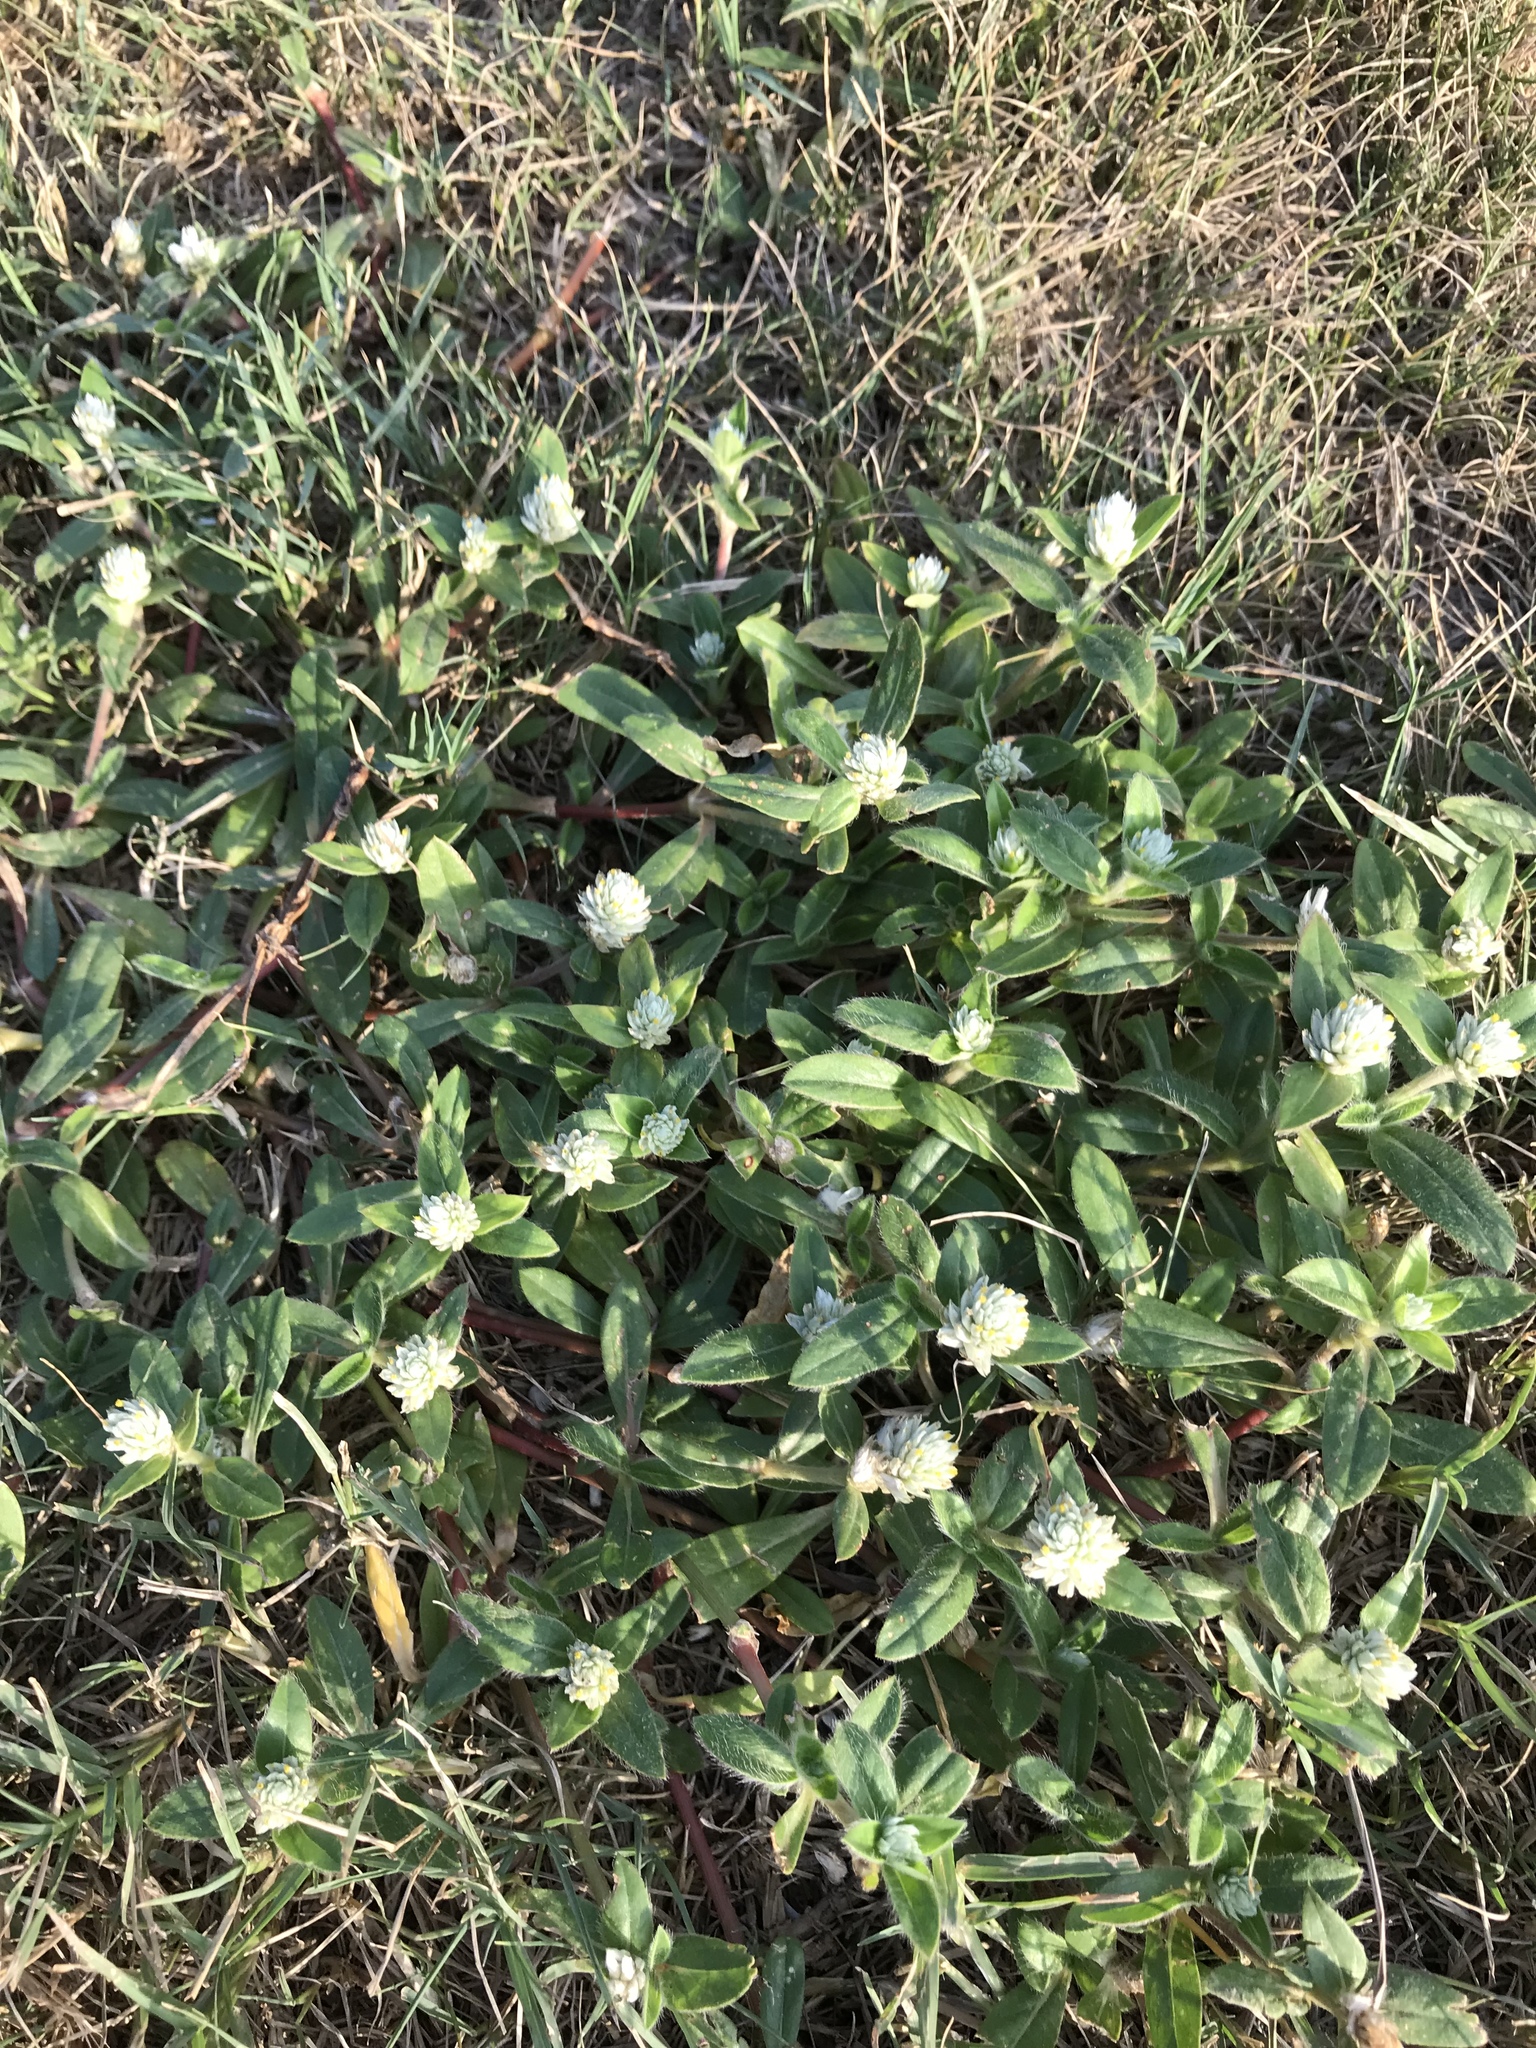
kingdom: Plantae
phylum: Tracheophyta
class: Magnoliopsida
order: Caryophyllales
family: Amaranthaceae
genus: Gomphrena
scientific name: Gomphrena serrata
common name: Arrasa con todo
